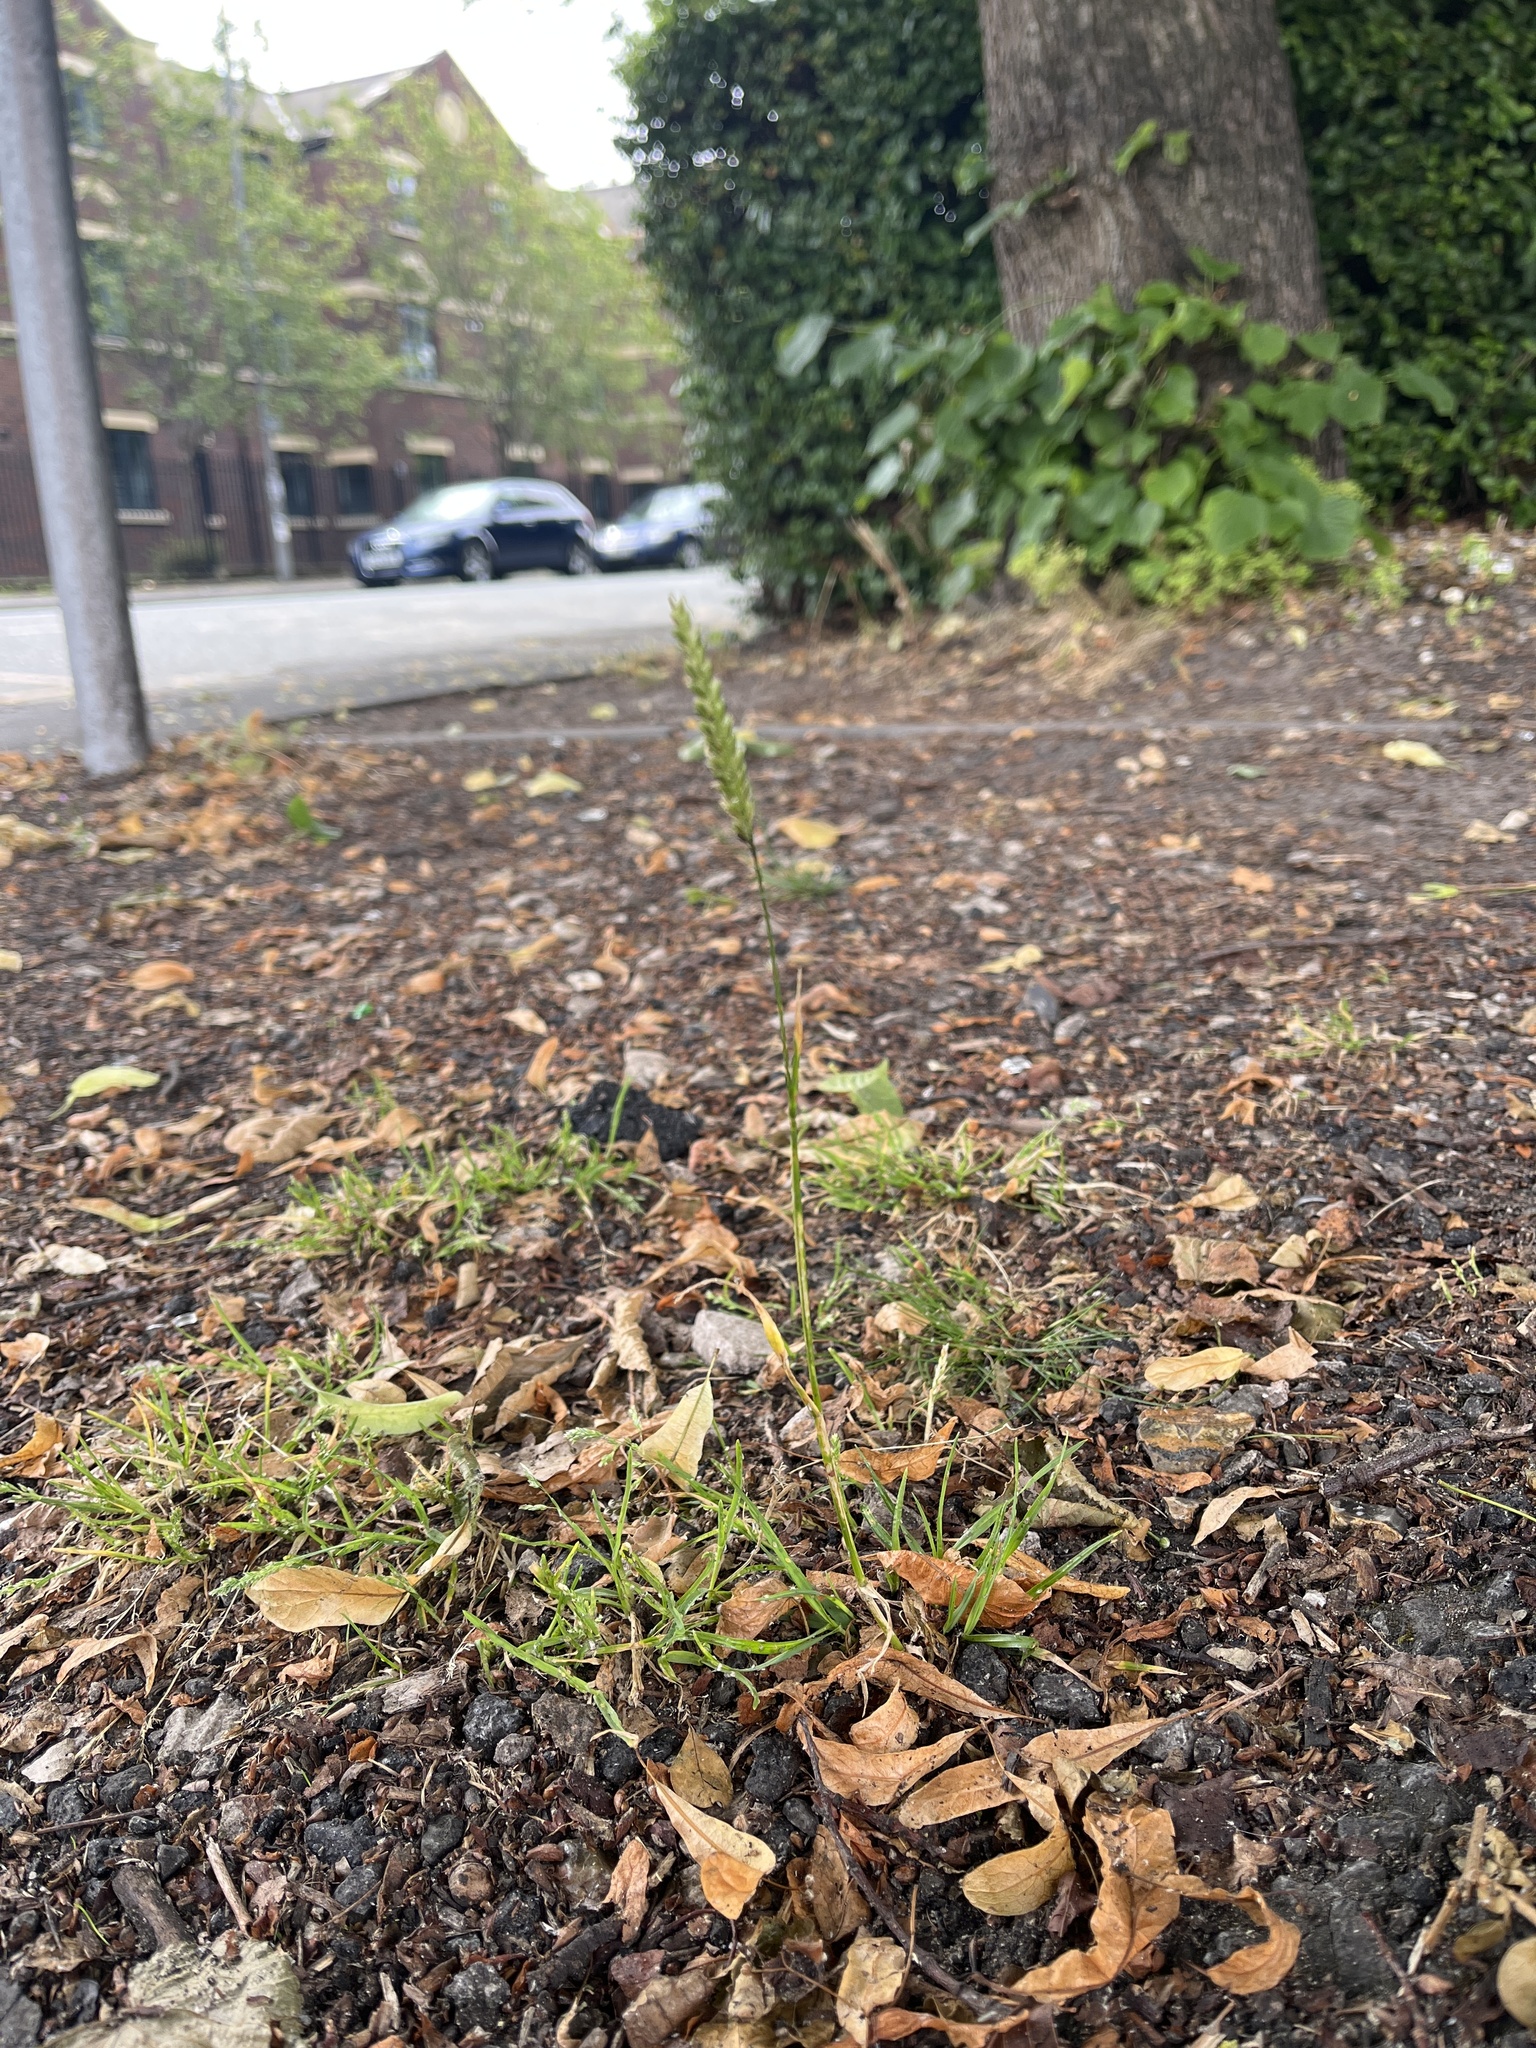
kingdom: Plantae
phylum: Tracheophyta
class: Liliopsida
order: Poales
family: Poaceae
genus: Cynosurus
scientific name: Cynosurus cristatus
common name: Crested dog's-tail
